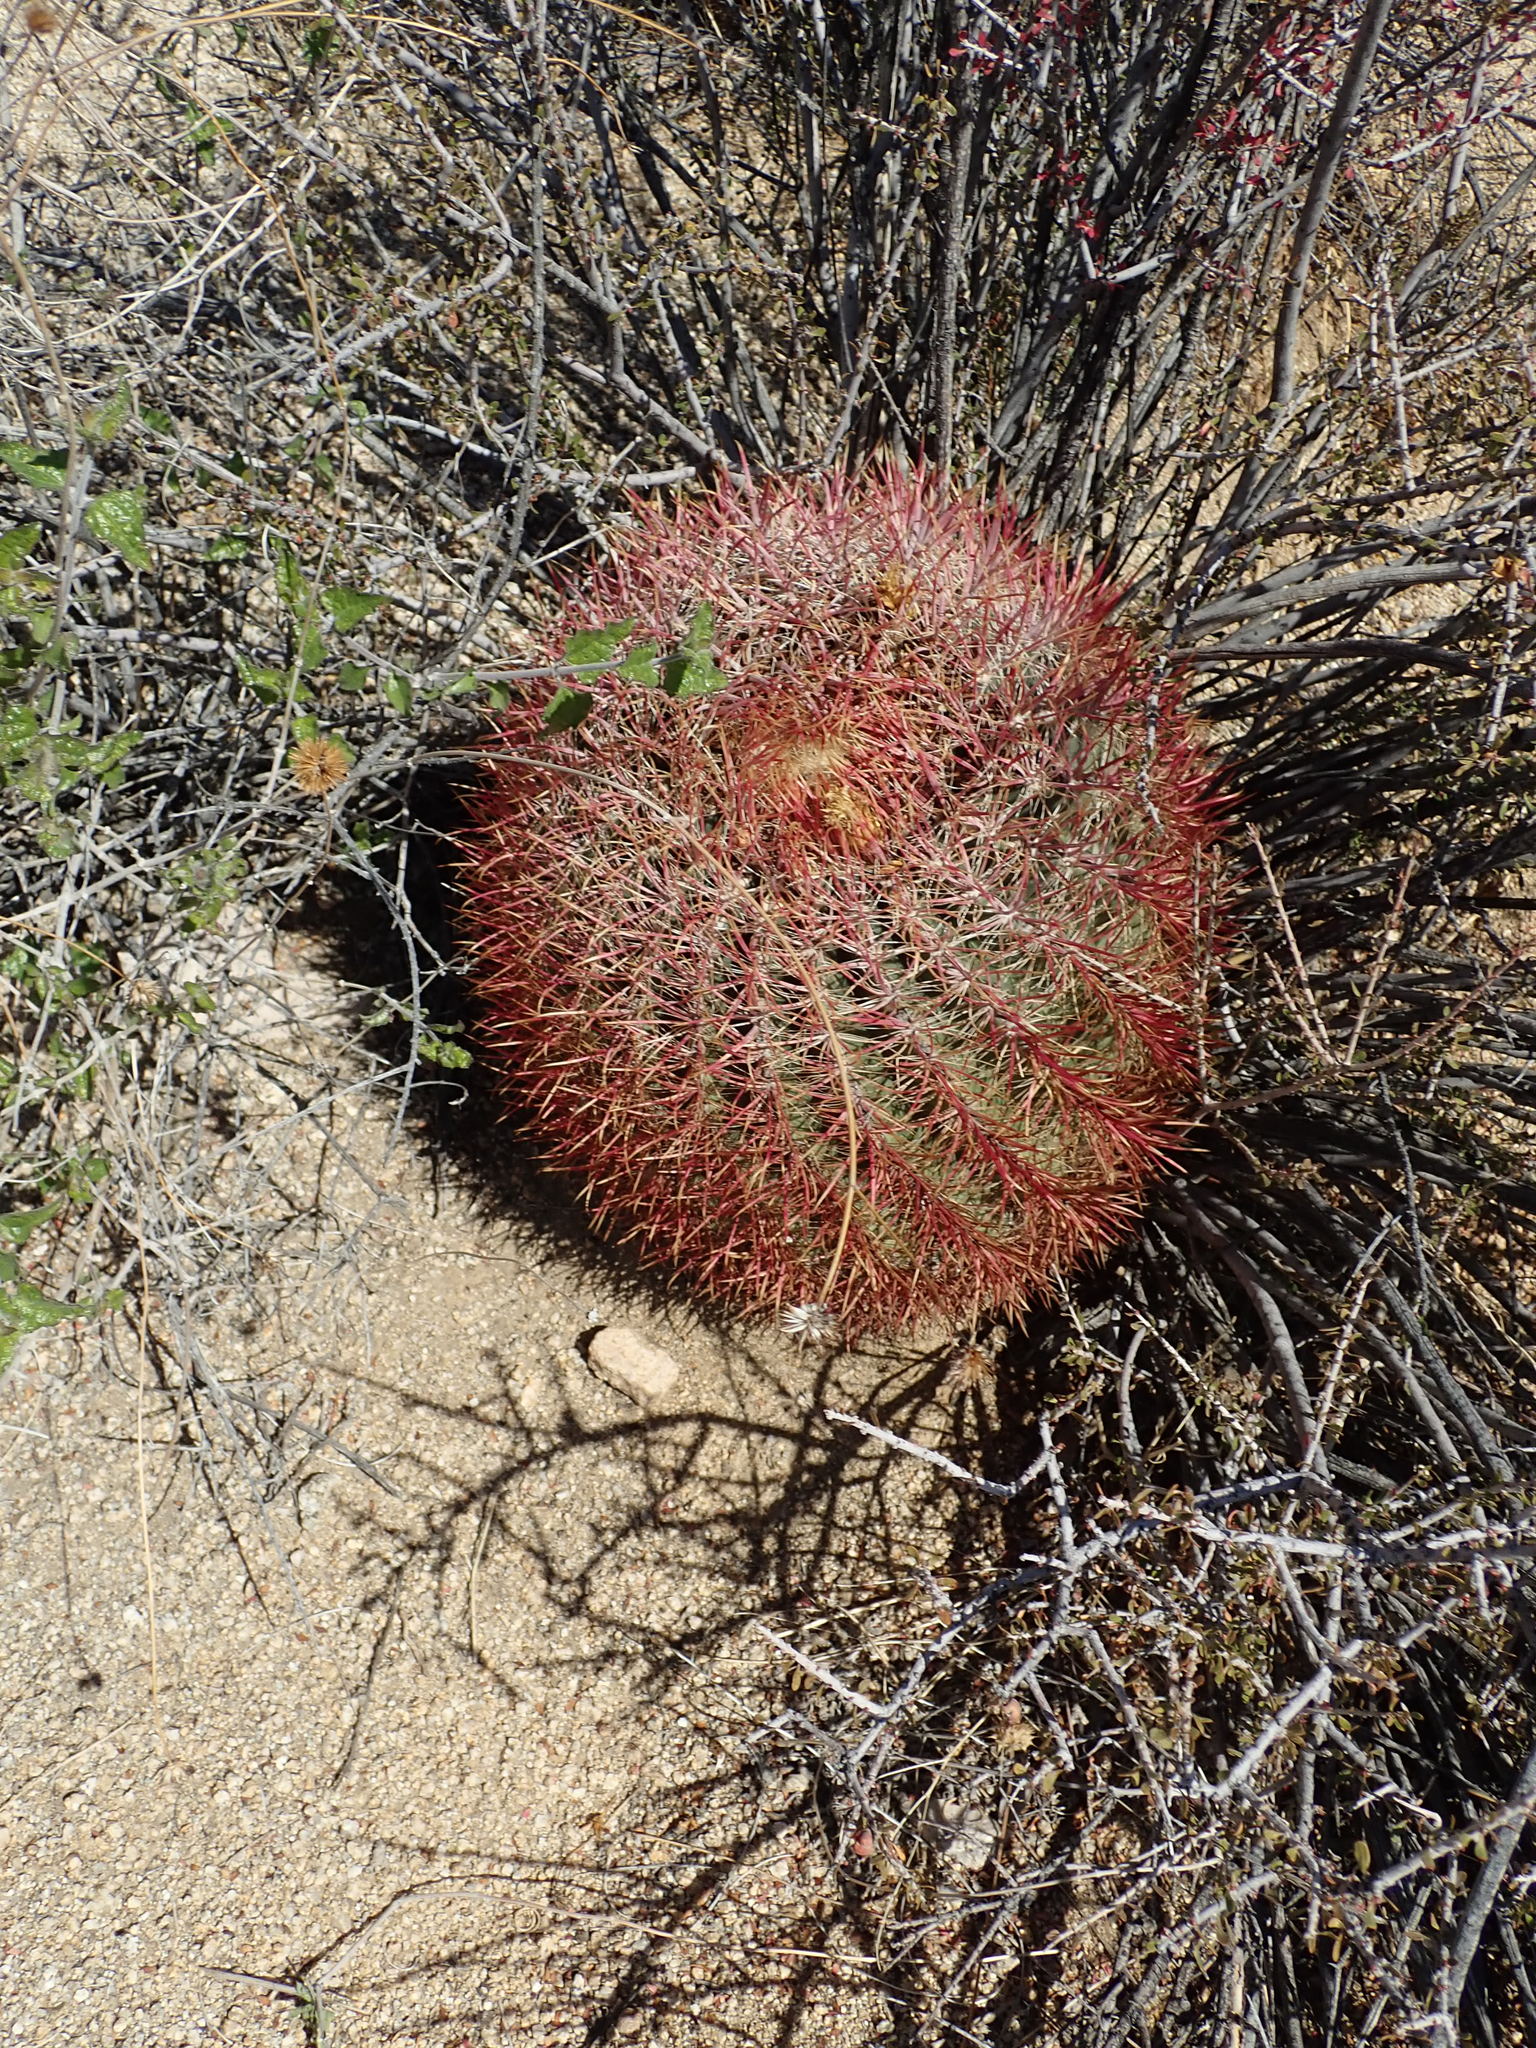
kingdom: Plantae
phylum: Tracheophyta
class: Magnoliopsida
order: Caryophyllales
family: Cactaceae
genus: Ferocactus
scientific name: Ferocactus cylindraceus
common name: California barrel cactus
